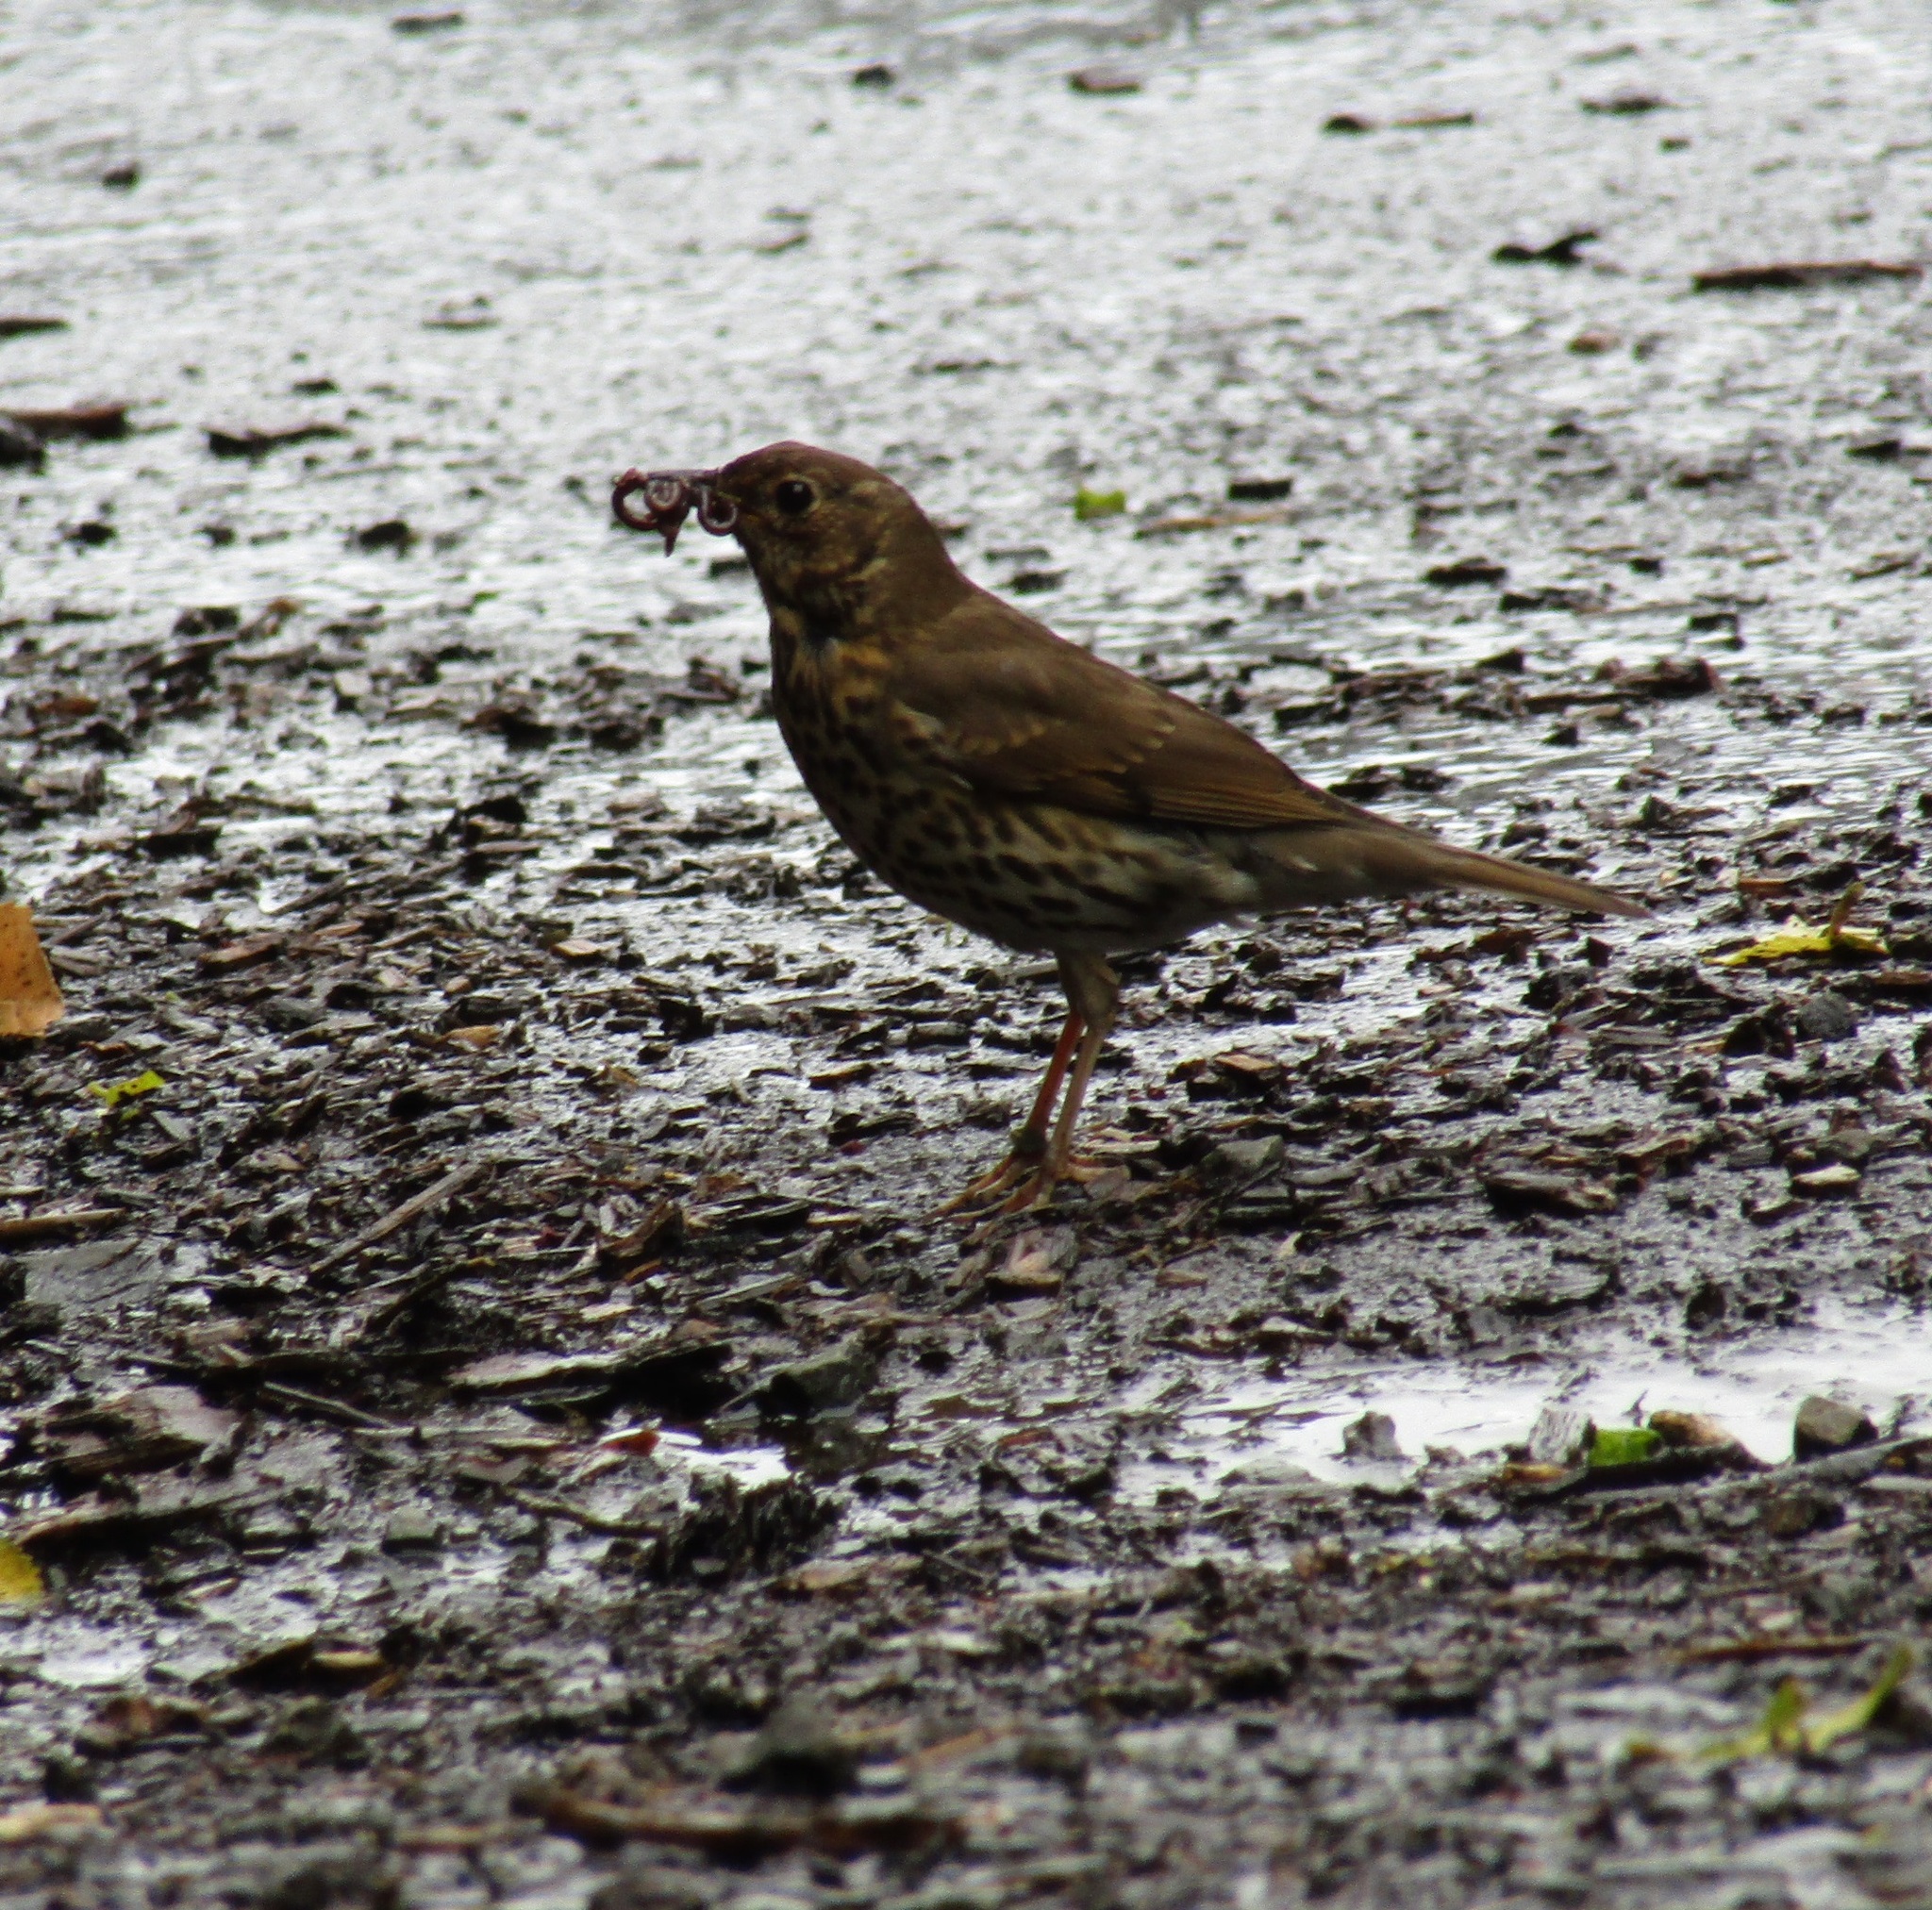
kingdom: Animalia
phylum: Chordata
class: Aves
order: Passeriformes
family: Turdidae
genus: Turdus
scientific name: Turdus philomelos
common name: Song thrush
